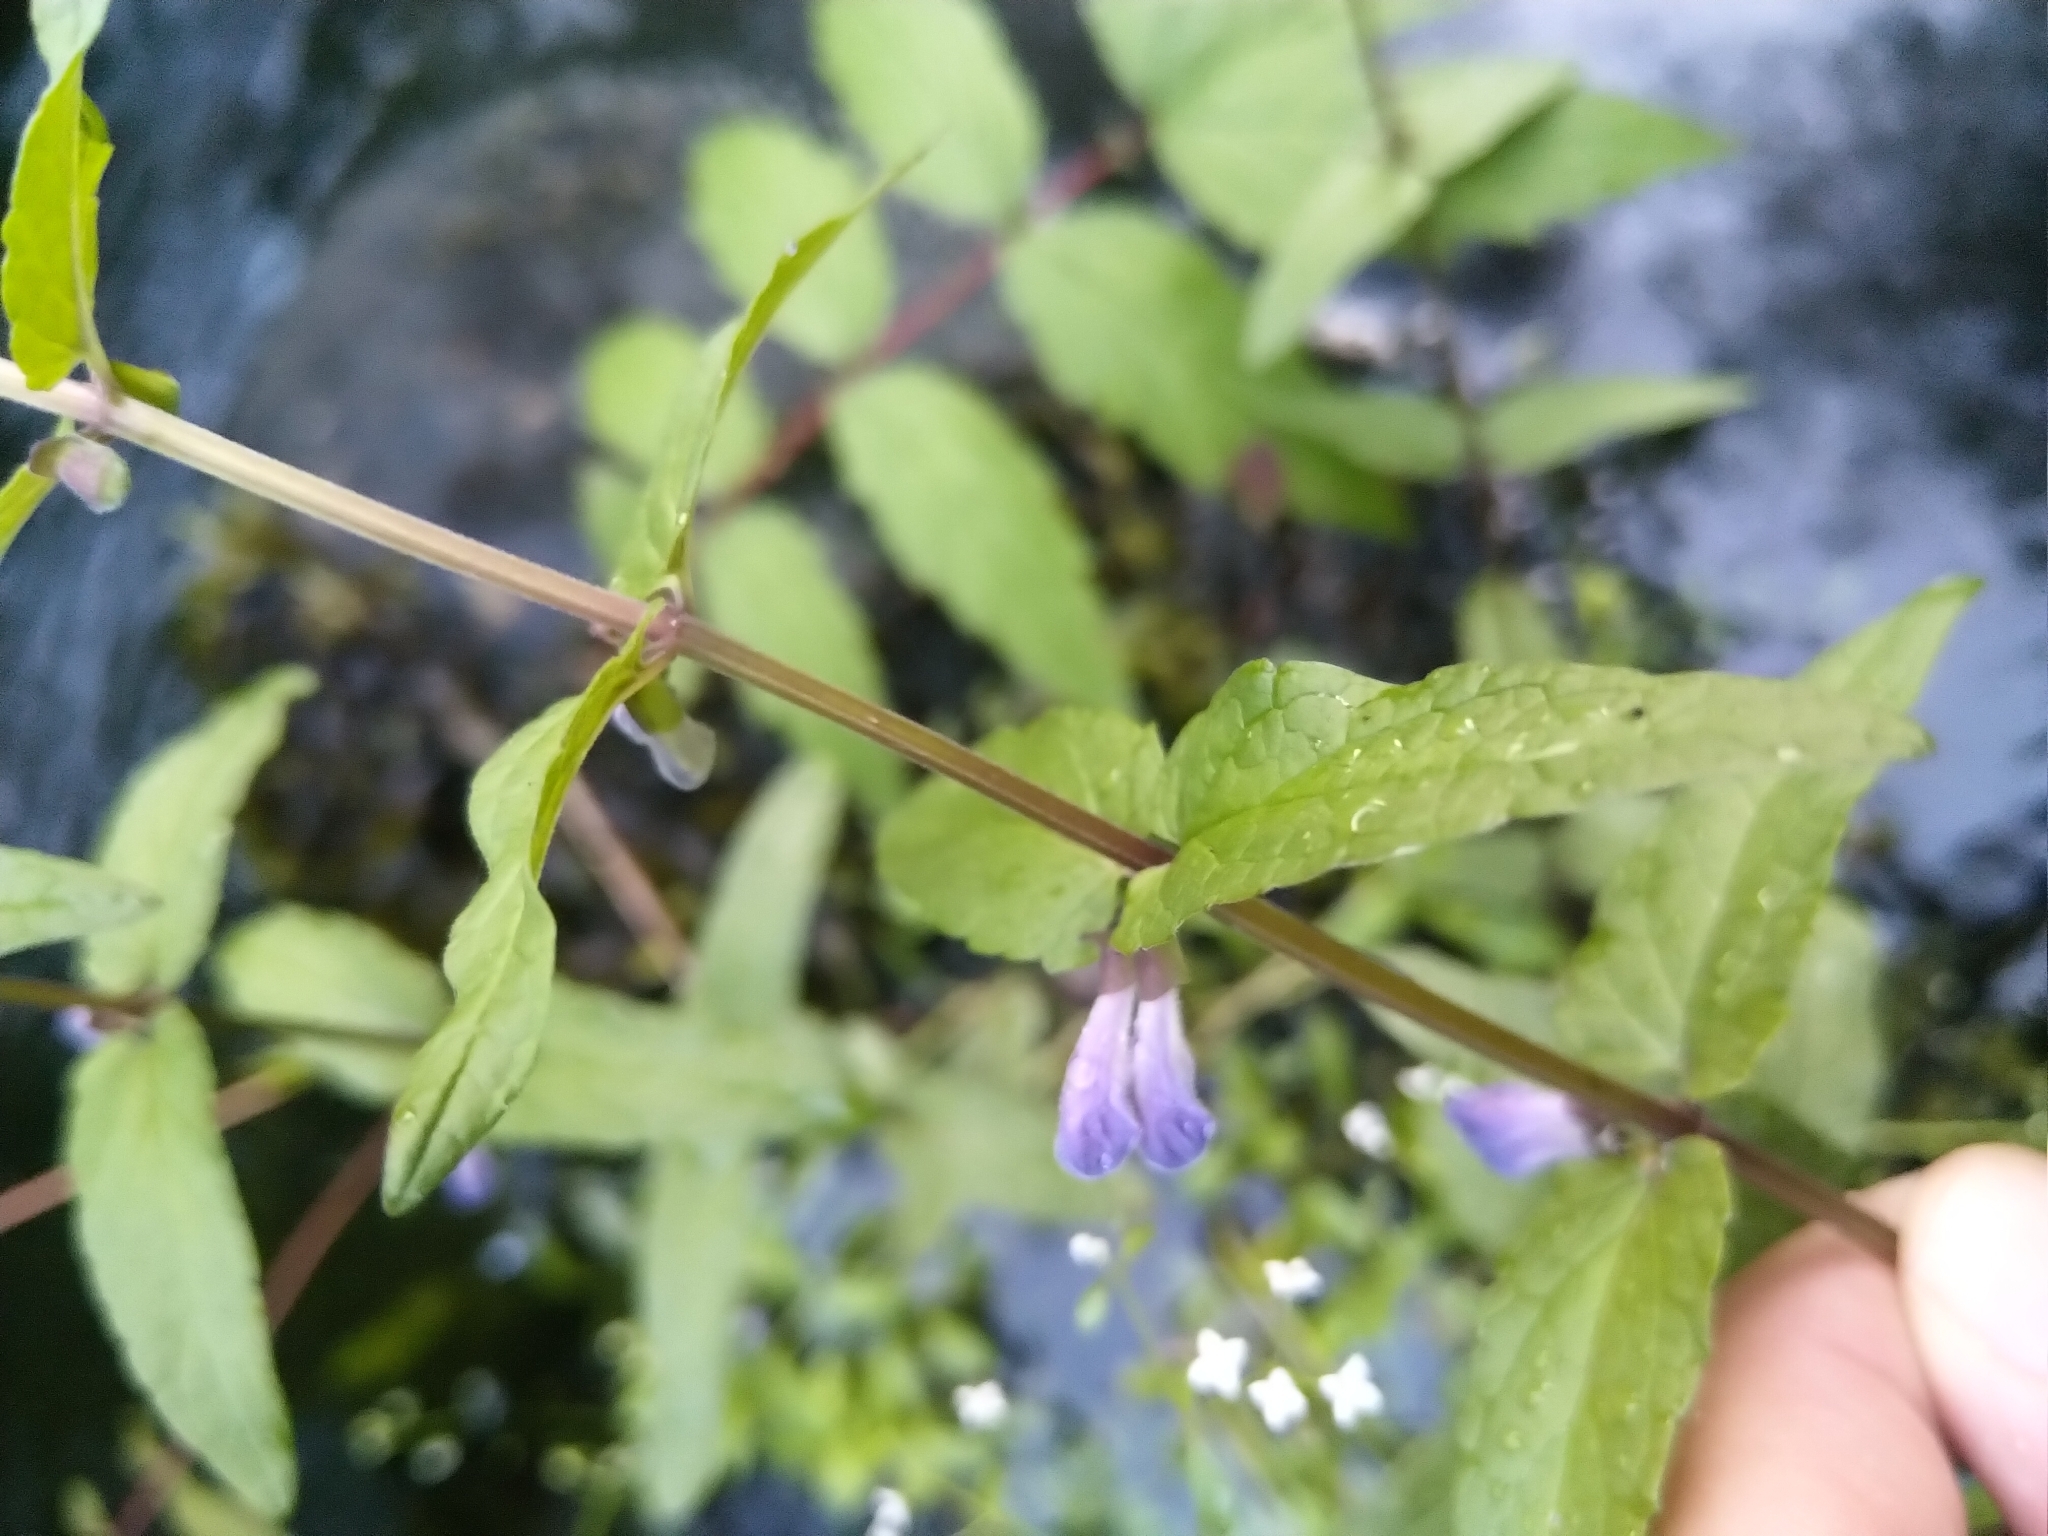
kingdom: Plantae
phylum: Tracheophyta
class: Magnoliopsida
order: Lamiales
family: Lamiaceae
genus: Scutellaria
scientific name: Scutellaria galericulata
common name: Skullcap
